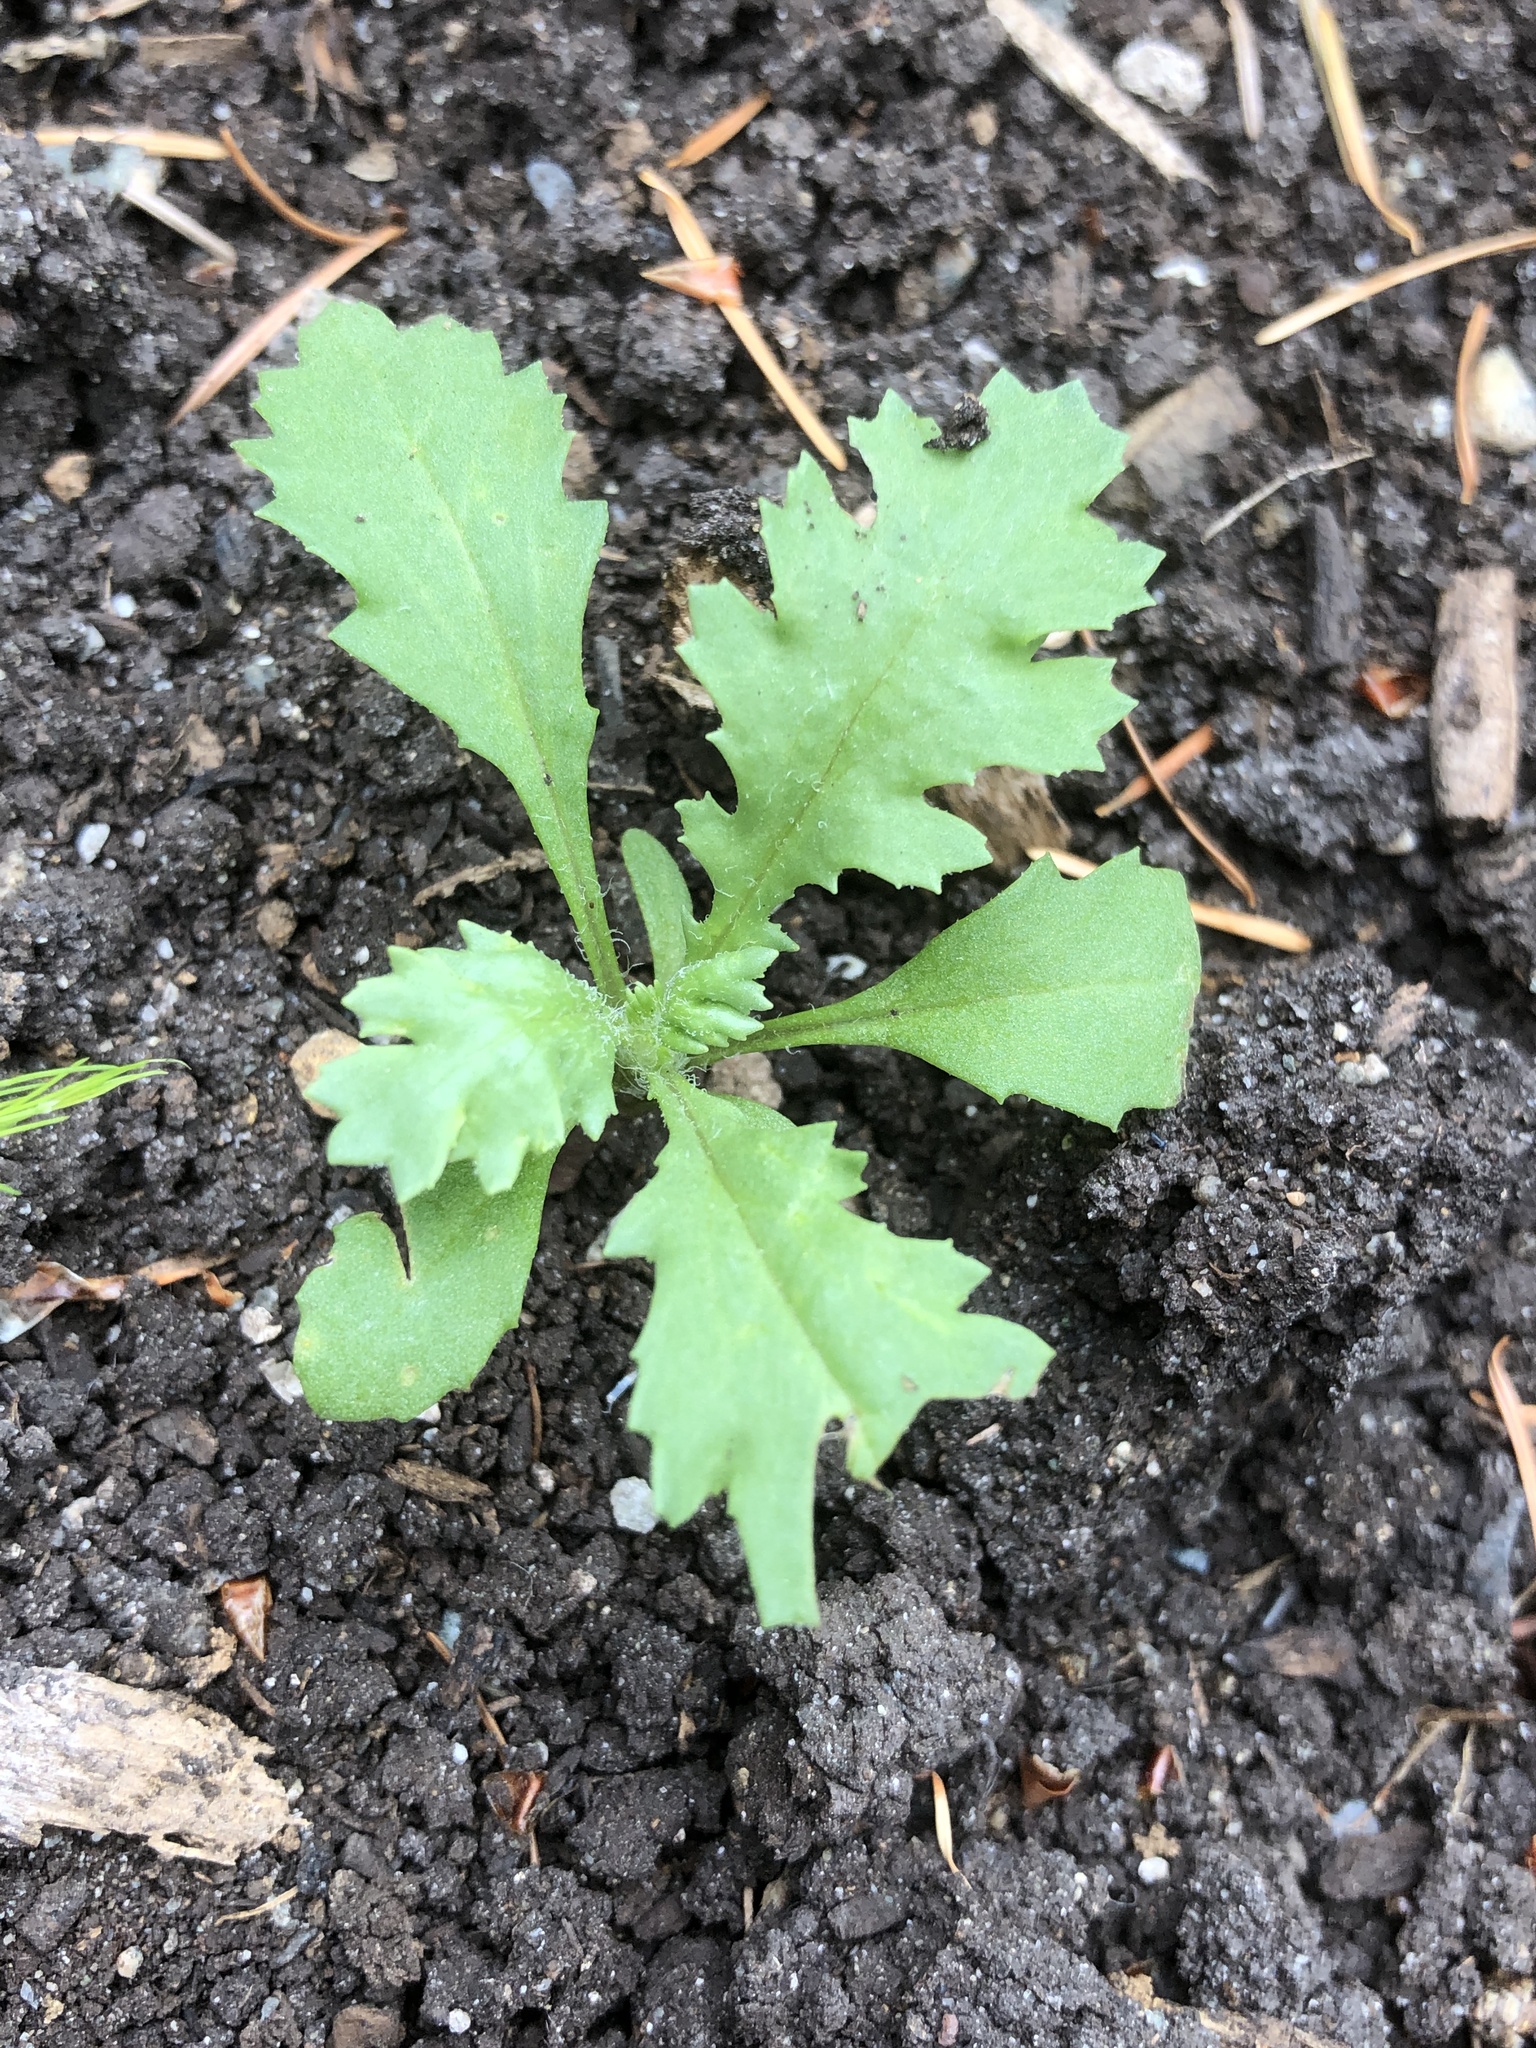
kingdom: Plantae
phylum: Tracheophyta
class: Magnoliopsida
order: Asterales
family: Asteraceae
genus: Senecio
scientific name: Senecio vulgaris
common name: Old-man-in-the-spring
